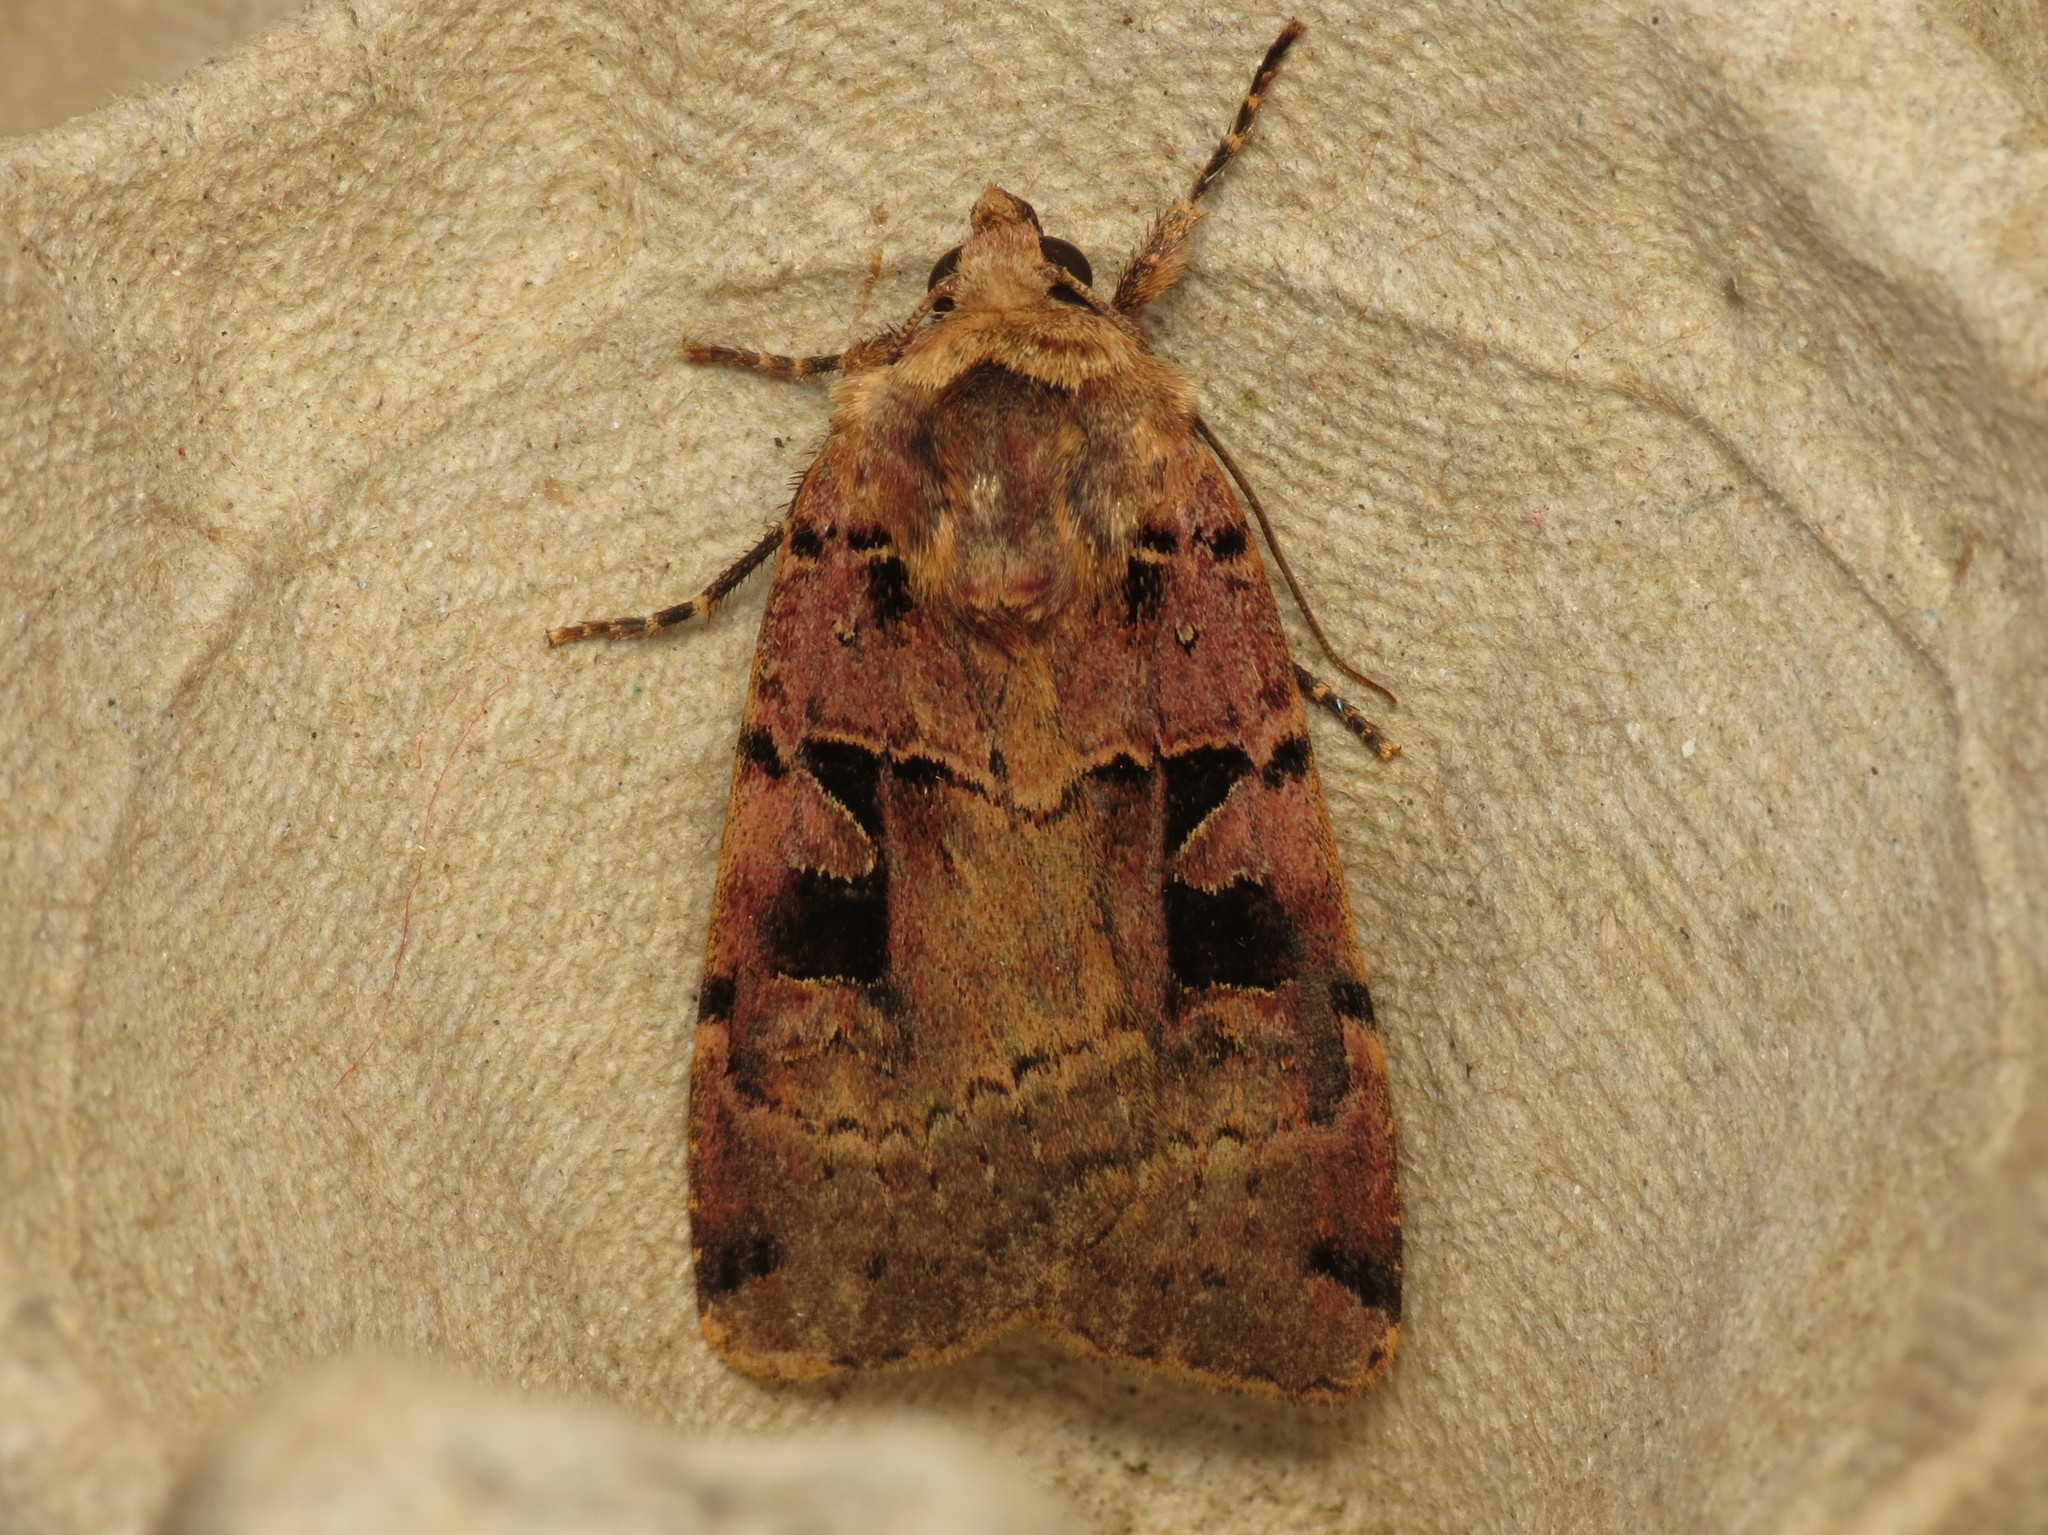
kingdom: Animalia
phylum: Arthropoda
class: Insecta
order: Lepidoptera
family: Noctuidae
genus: Xestia
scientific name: Xestia triangulum
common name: Double square-spot
